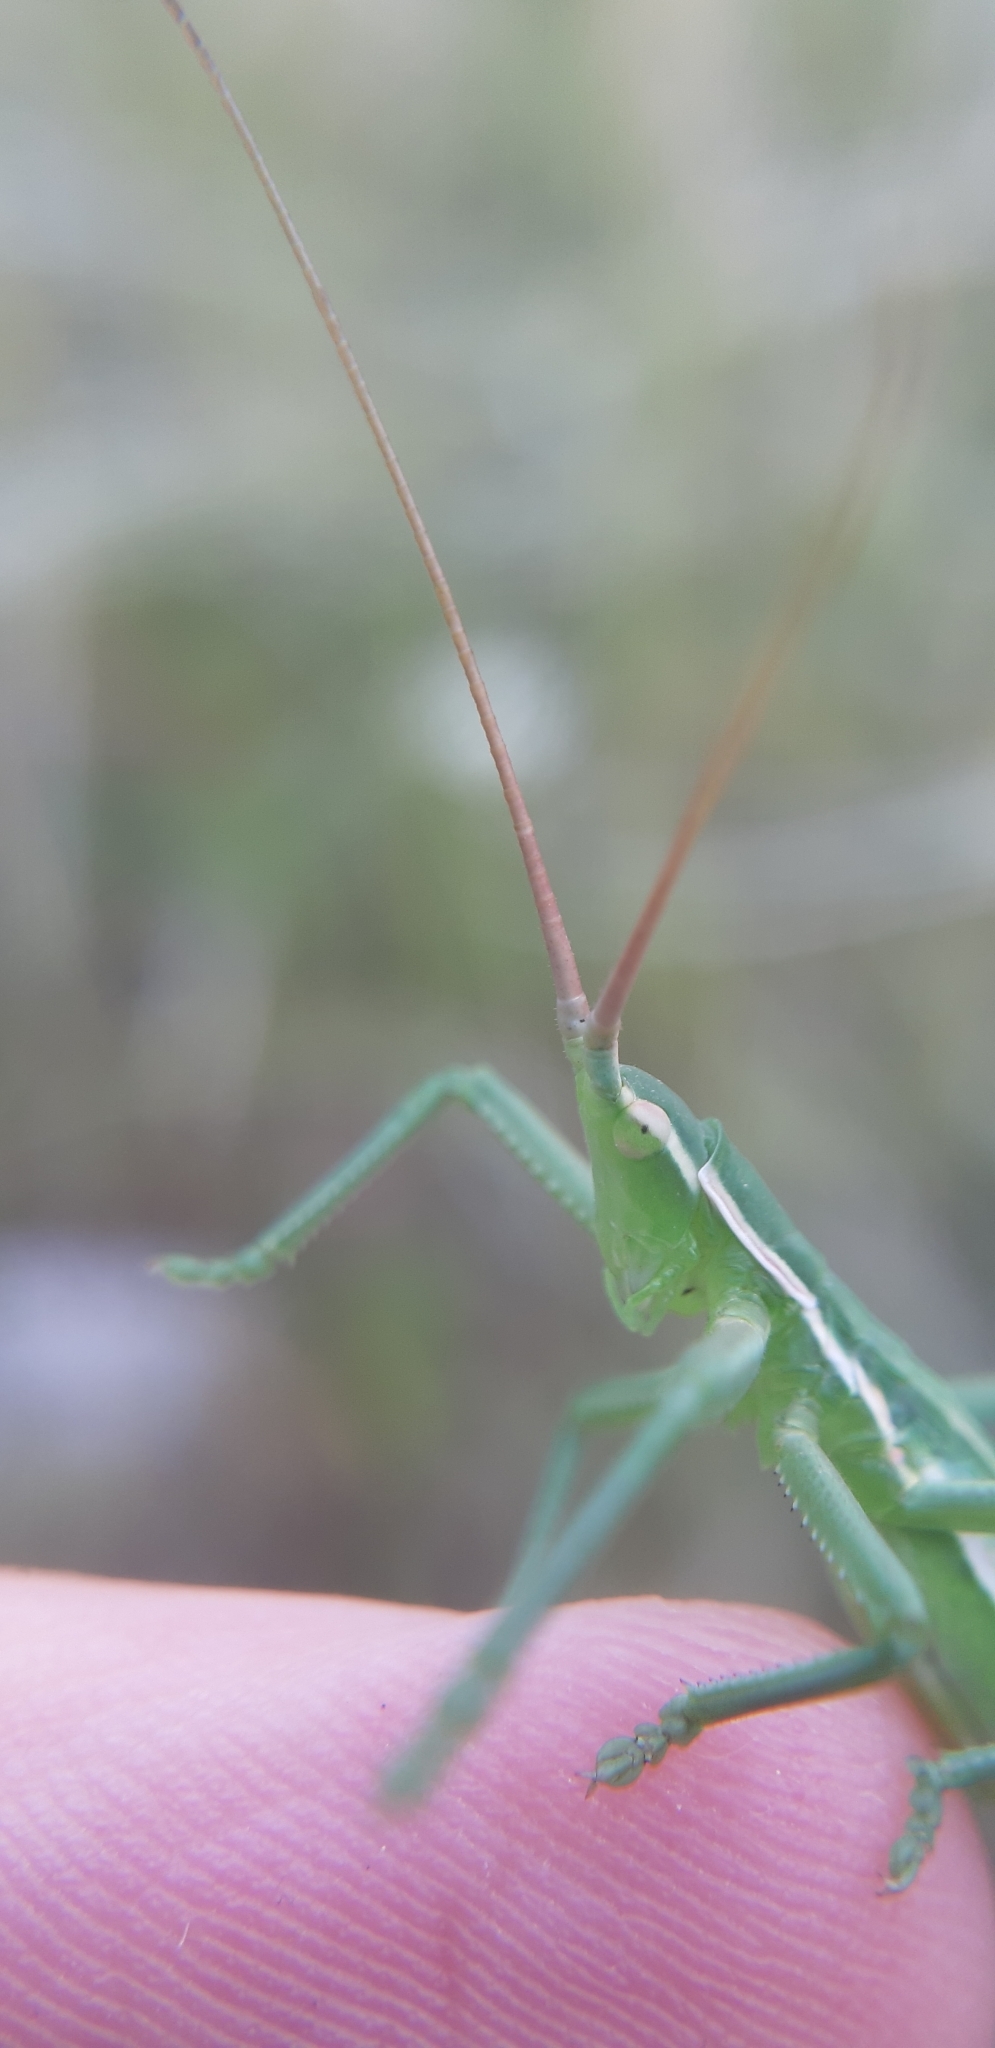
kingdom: Animalia
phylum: Arthropoda
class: Insecta
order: Orthoptera
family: Tettigoniidae
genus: Saga
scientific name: Saga pedo
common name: Common predatory bush-cricket
